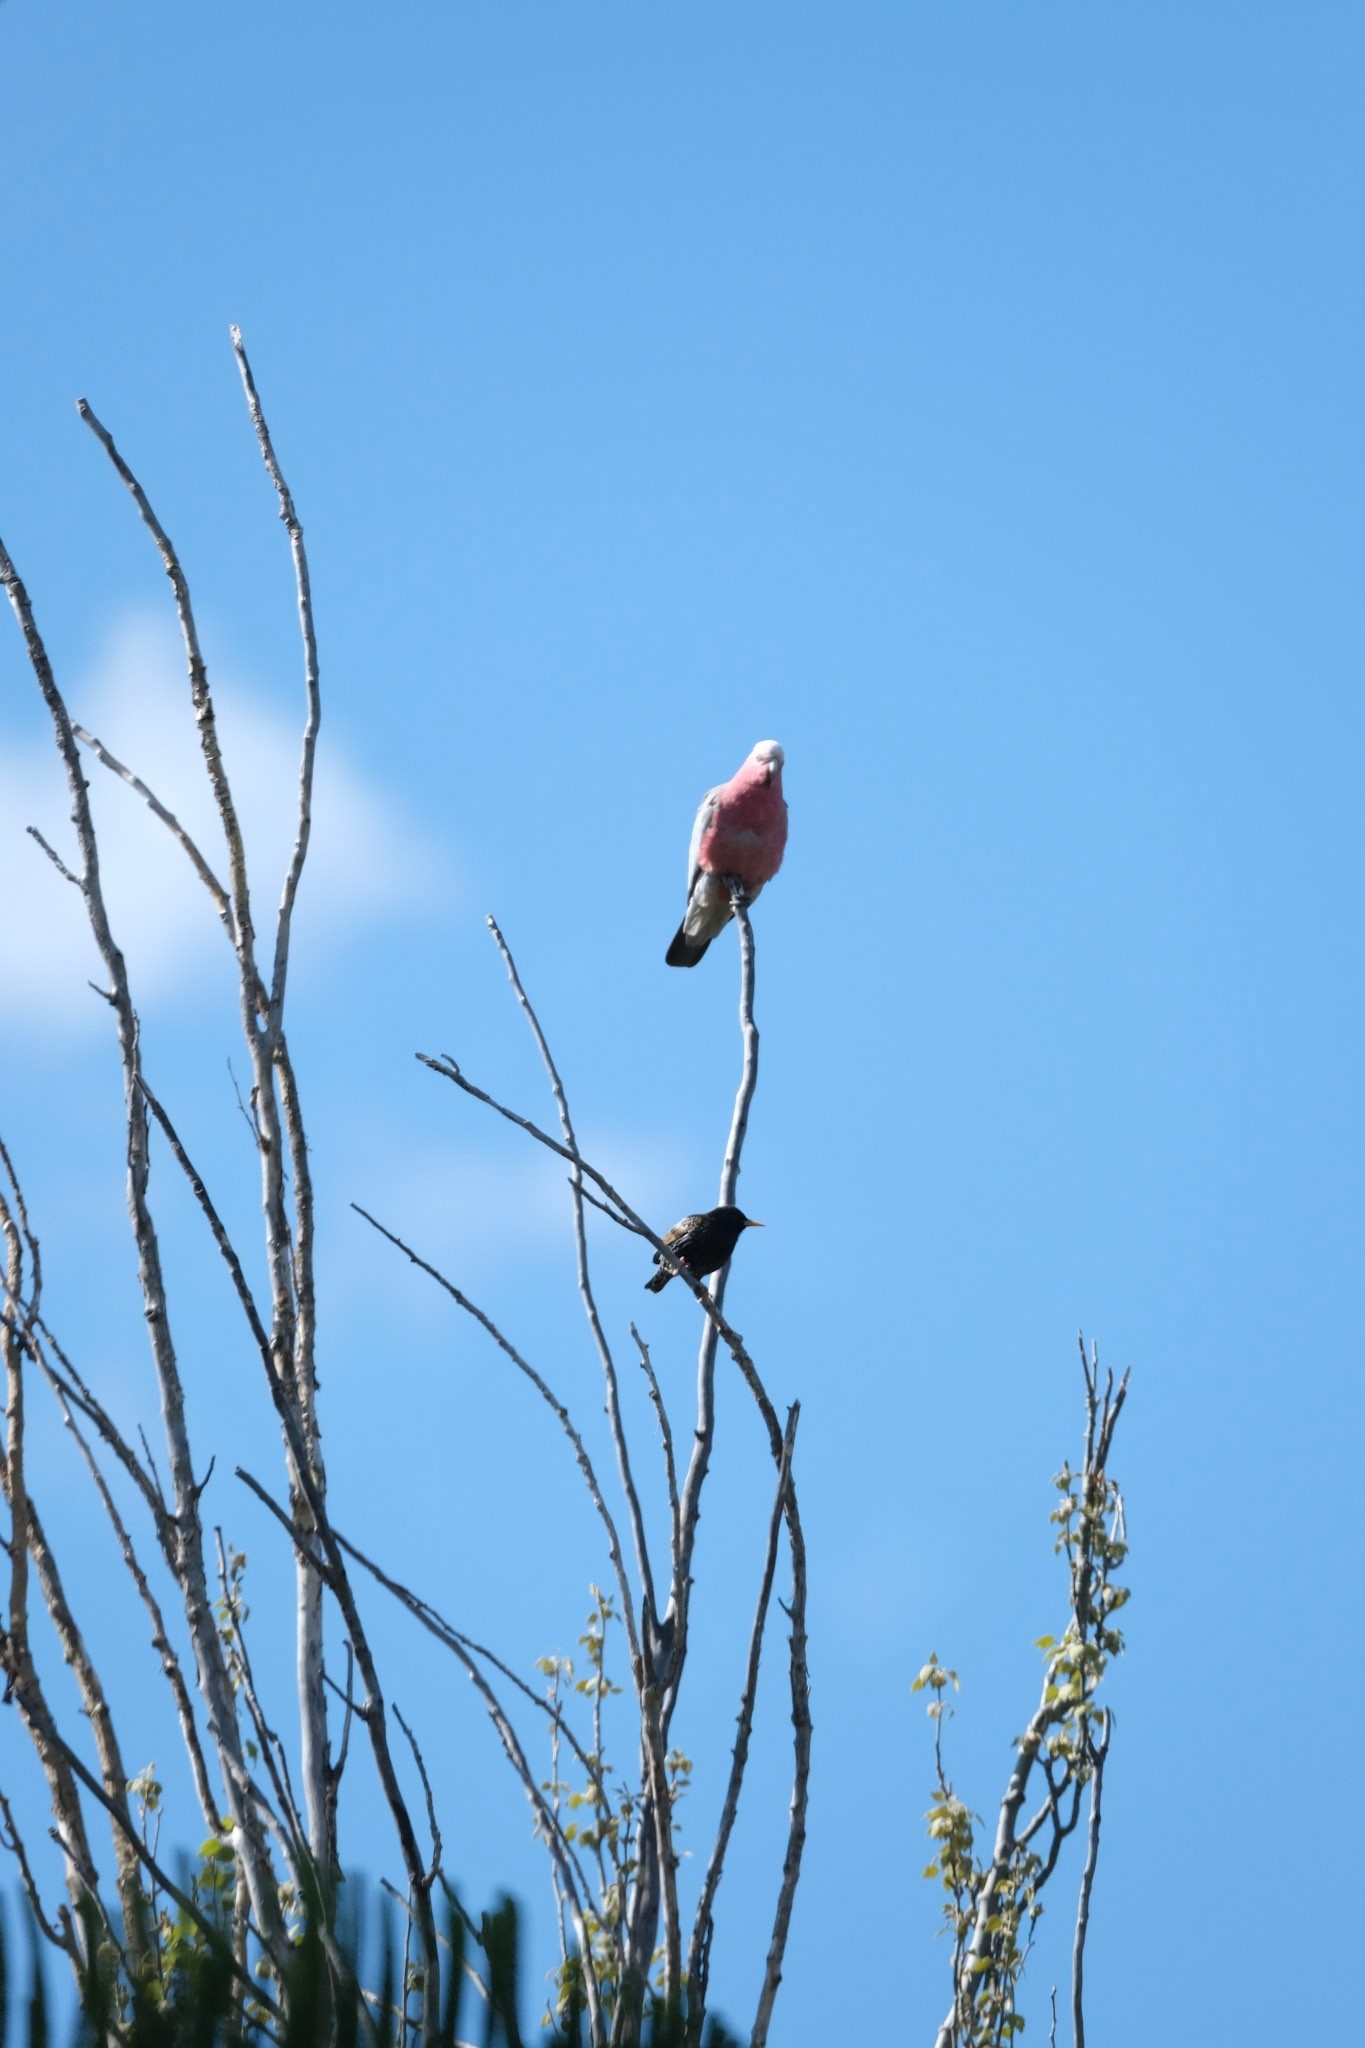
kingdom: Animalia
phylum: Chordata
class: Aves
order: Psittaciformes
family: Psittacidae
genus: Eolophus
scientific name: Eolophus roseicapilla
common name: Galah
